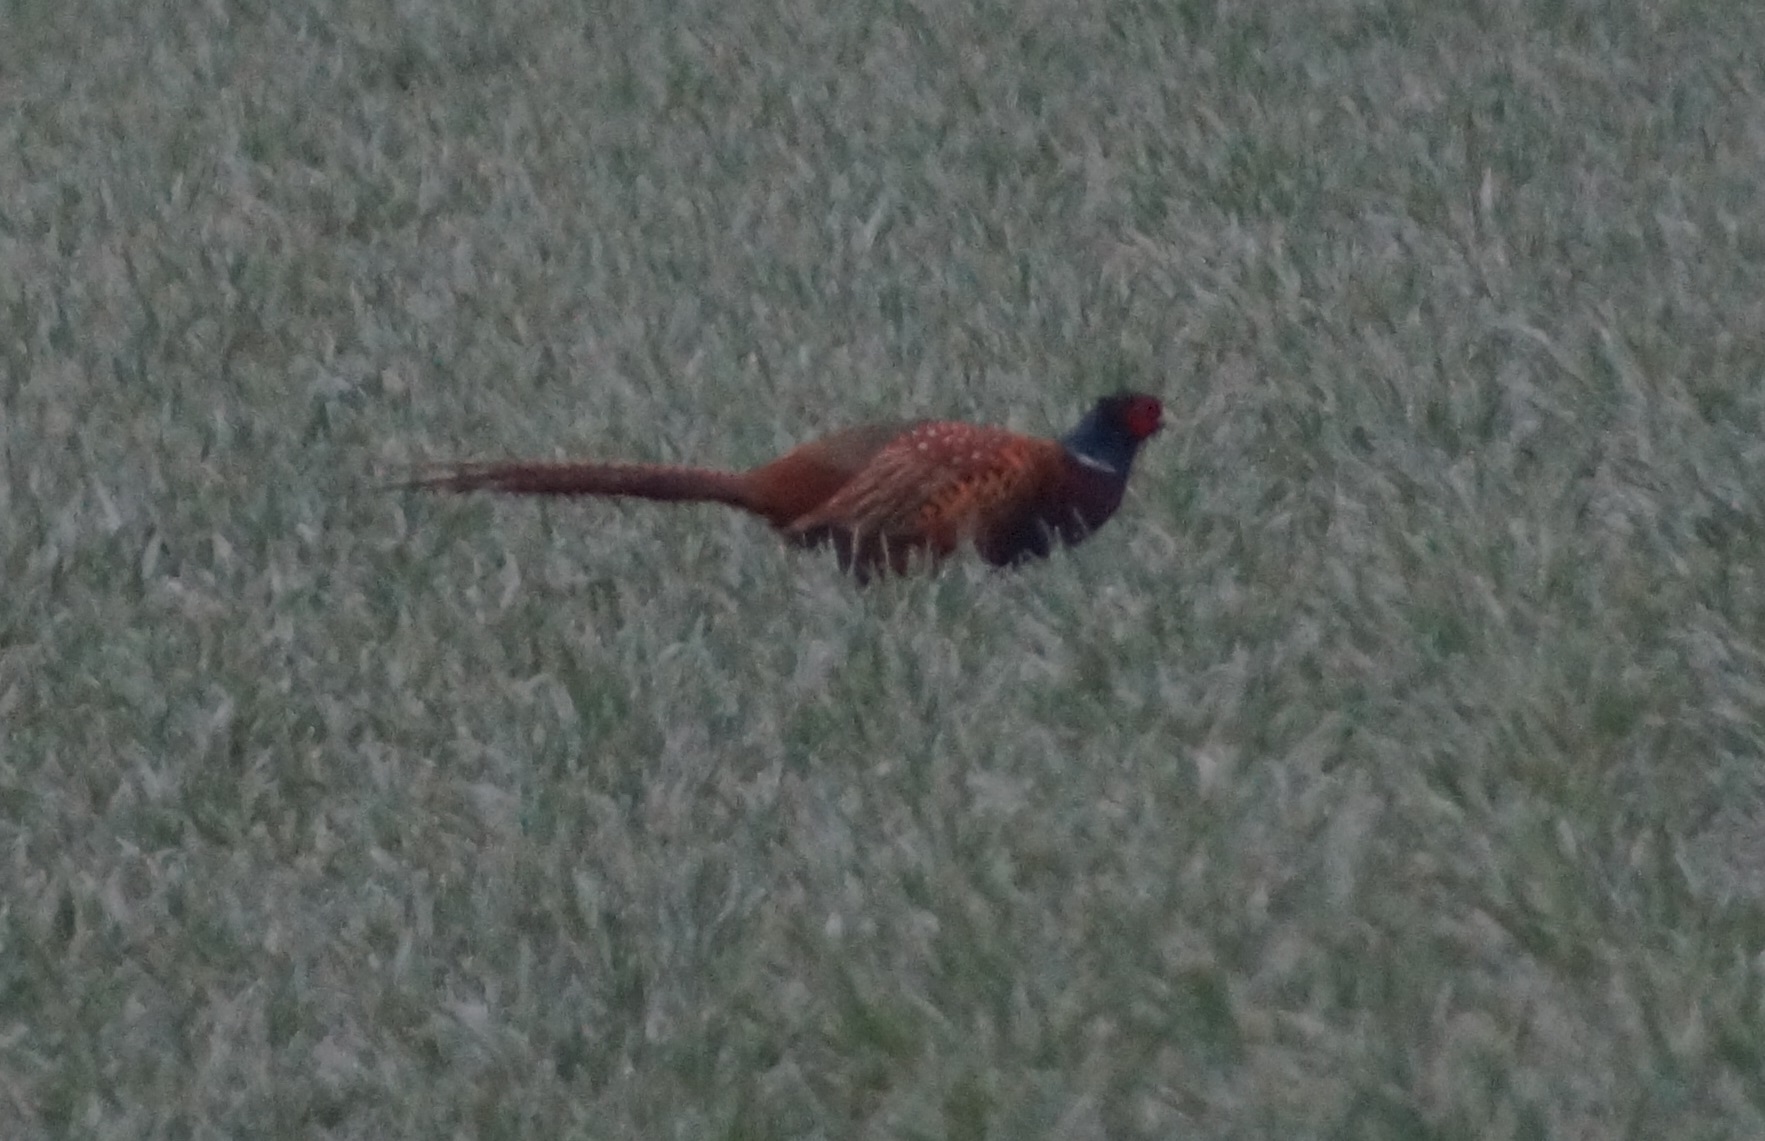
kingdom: Animalia
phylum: Chordata
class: Aves
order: Galliformes
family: Phasianidae
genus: Phasianus
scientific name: Phasianus colchicus
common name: Common pheasant
